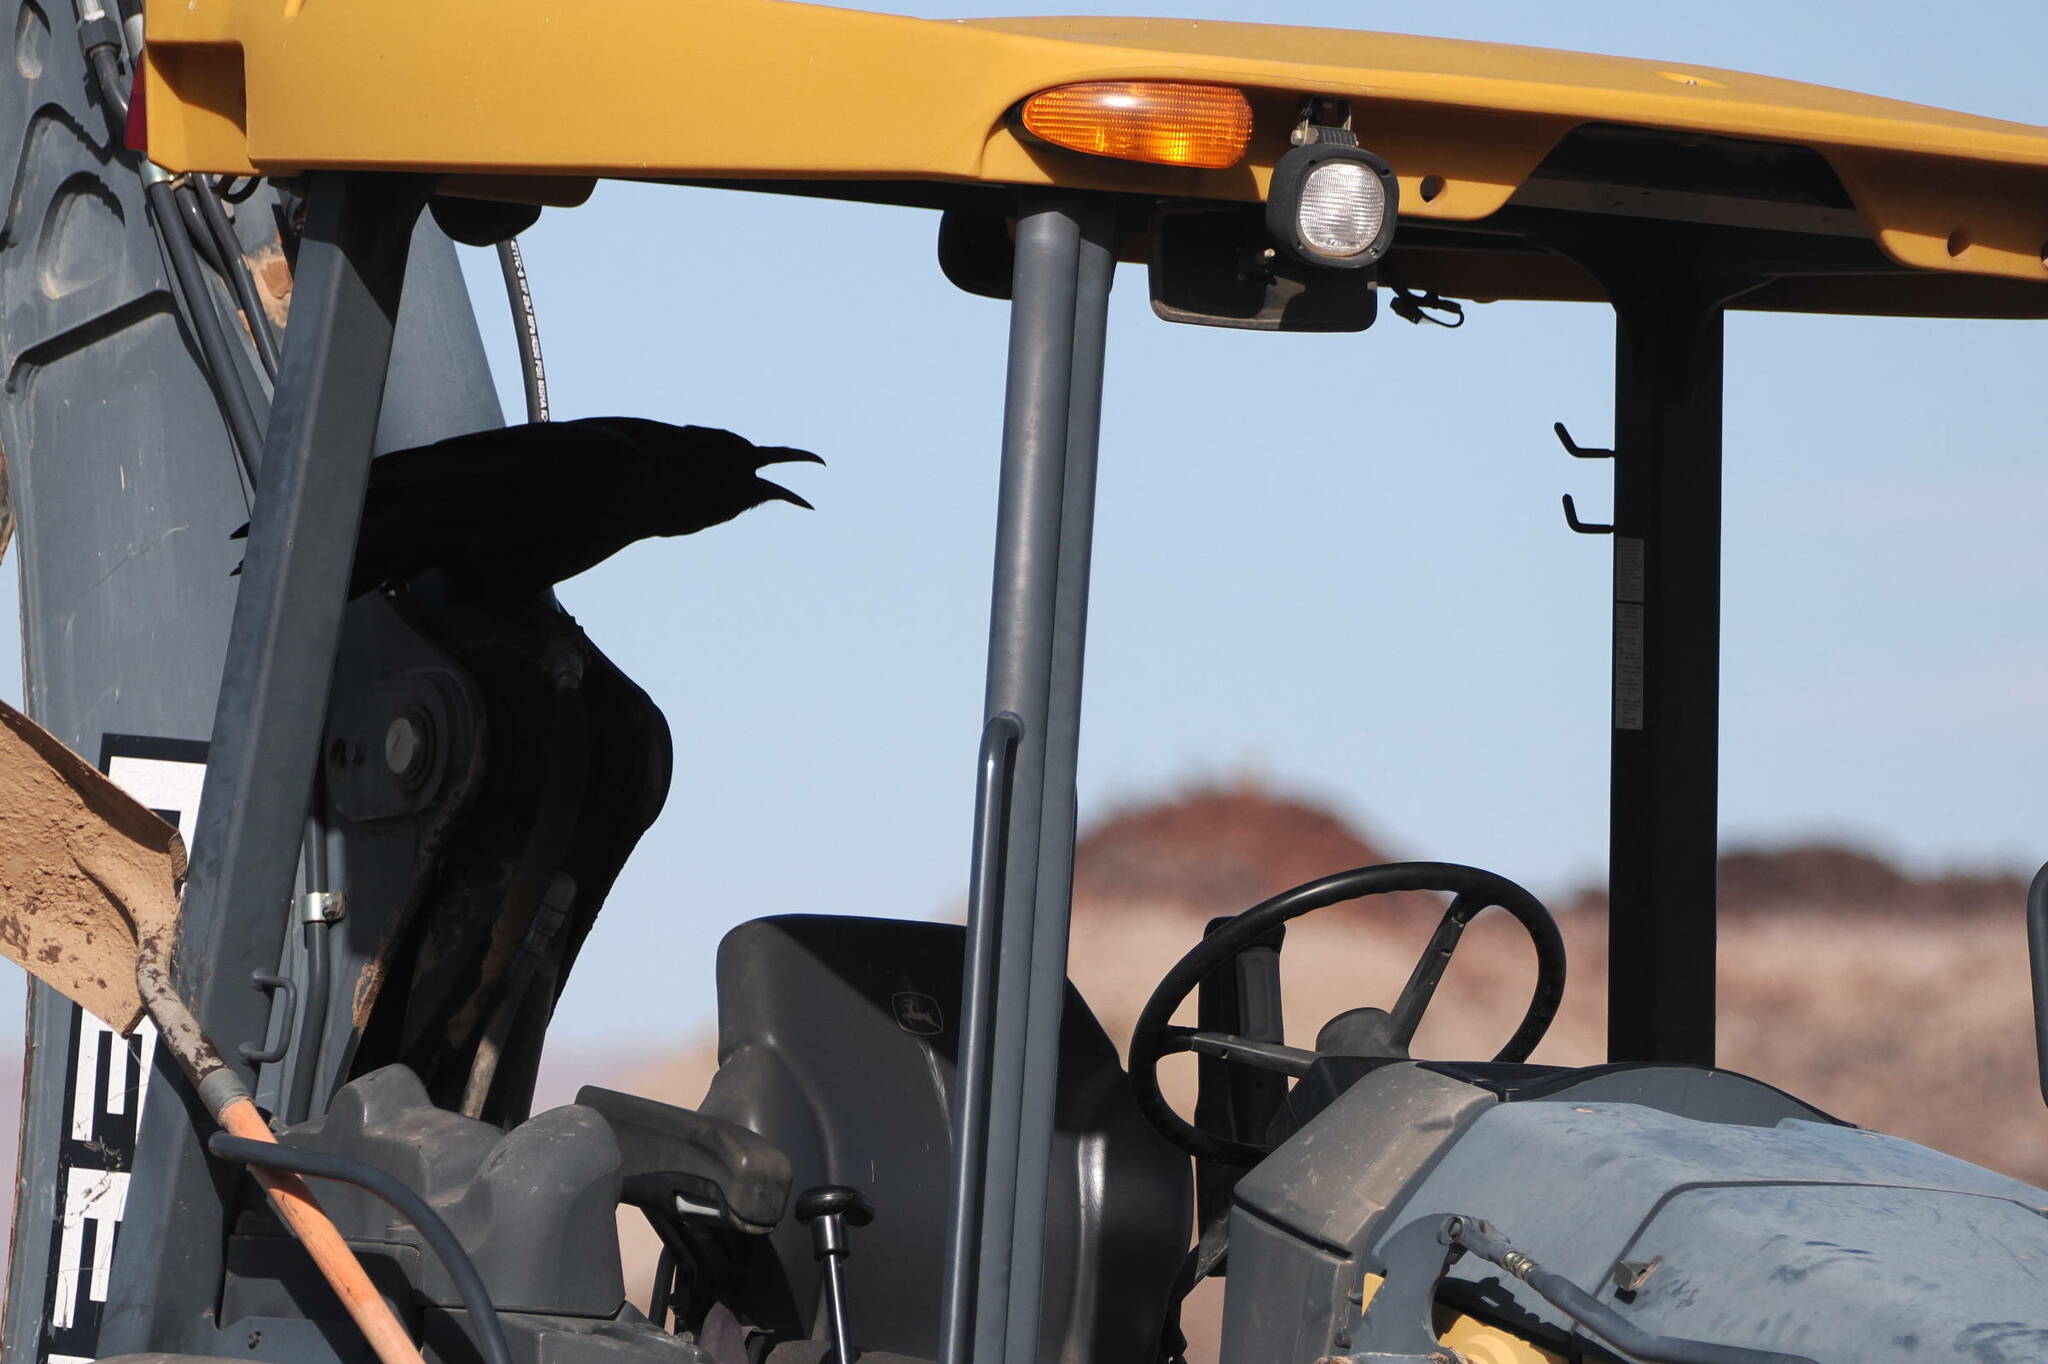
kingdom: Animalia
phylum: Chordata
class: Aves
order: Passeriformes
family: Corvidae
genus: Corvus
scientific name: Corvus corax
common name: Common raven
